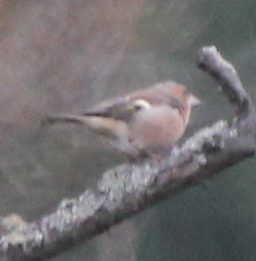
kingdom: Animalia
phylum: Chordata
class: Aves
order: Passeriformes
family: Fringillidae
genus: Fringilla
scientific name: Fringilla coelebs
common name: Common chaffinch
